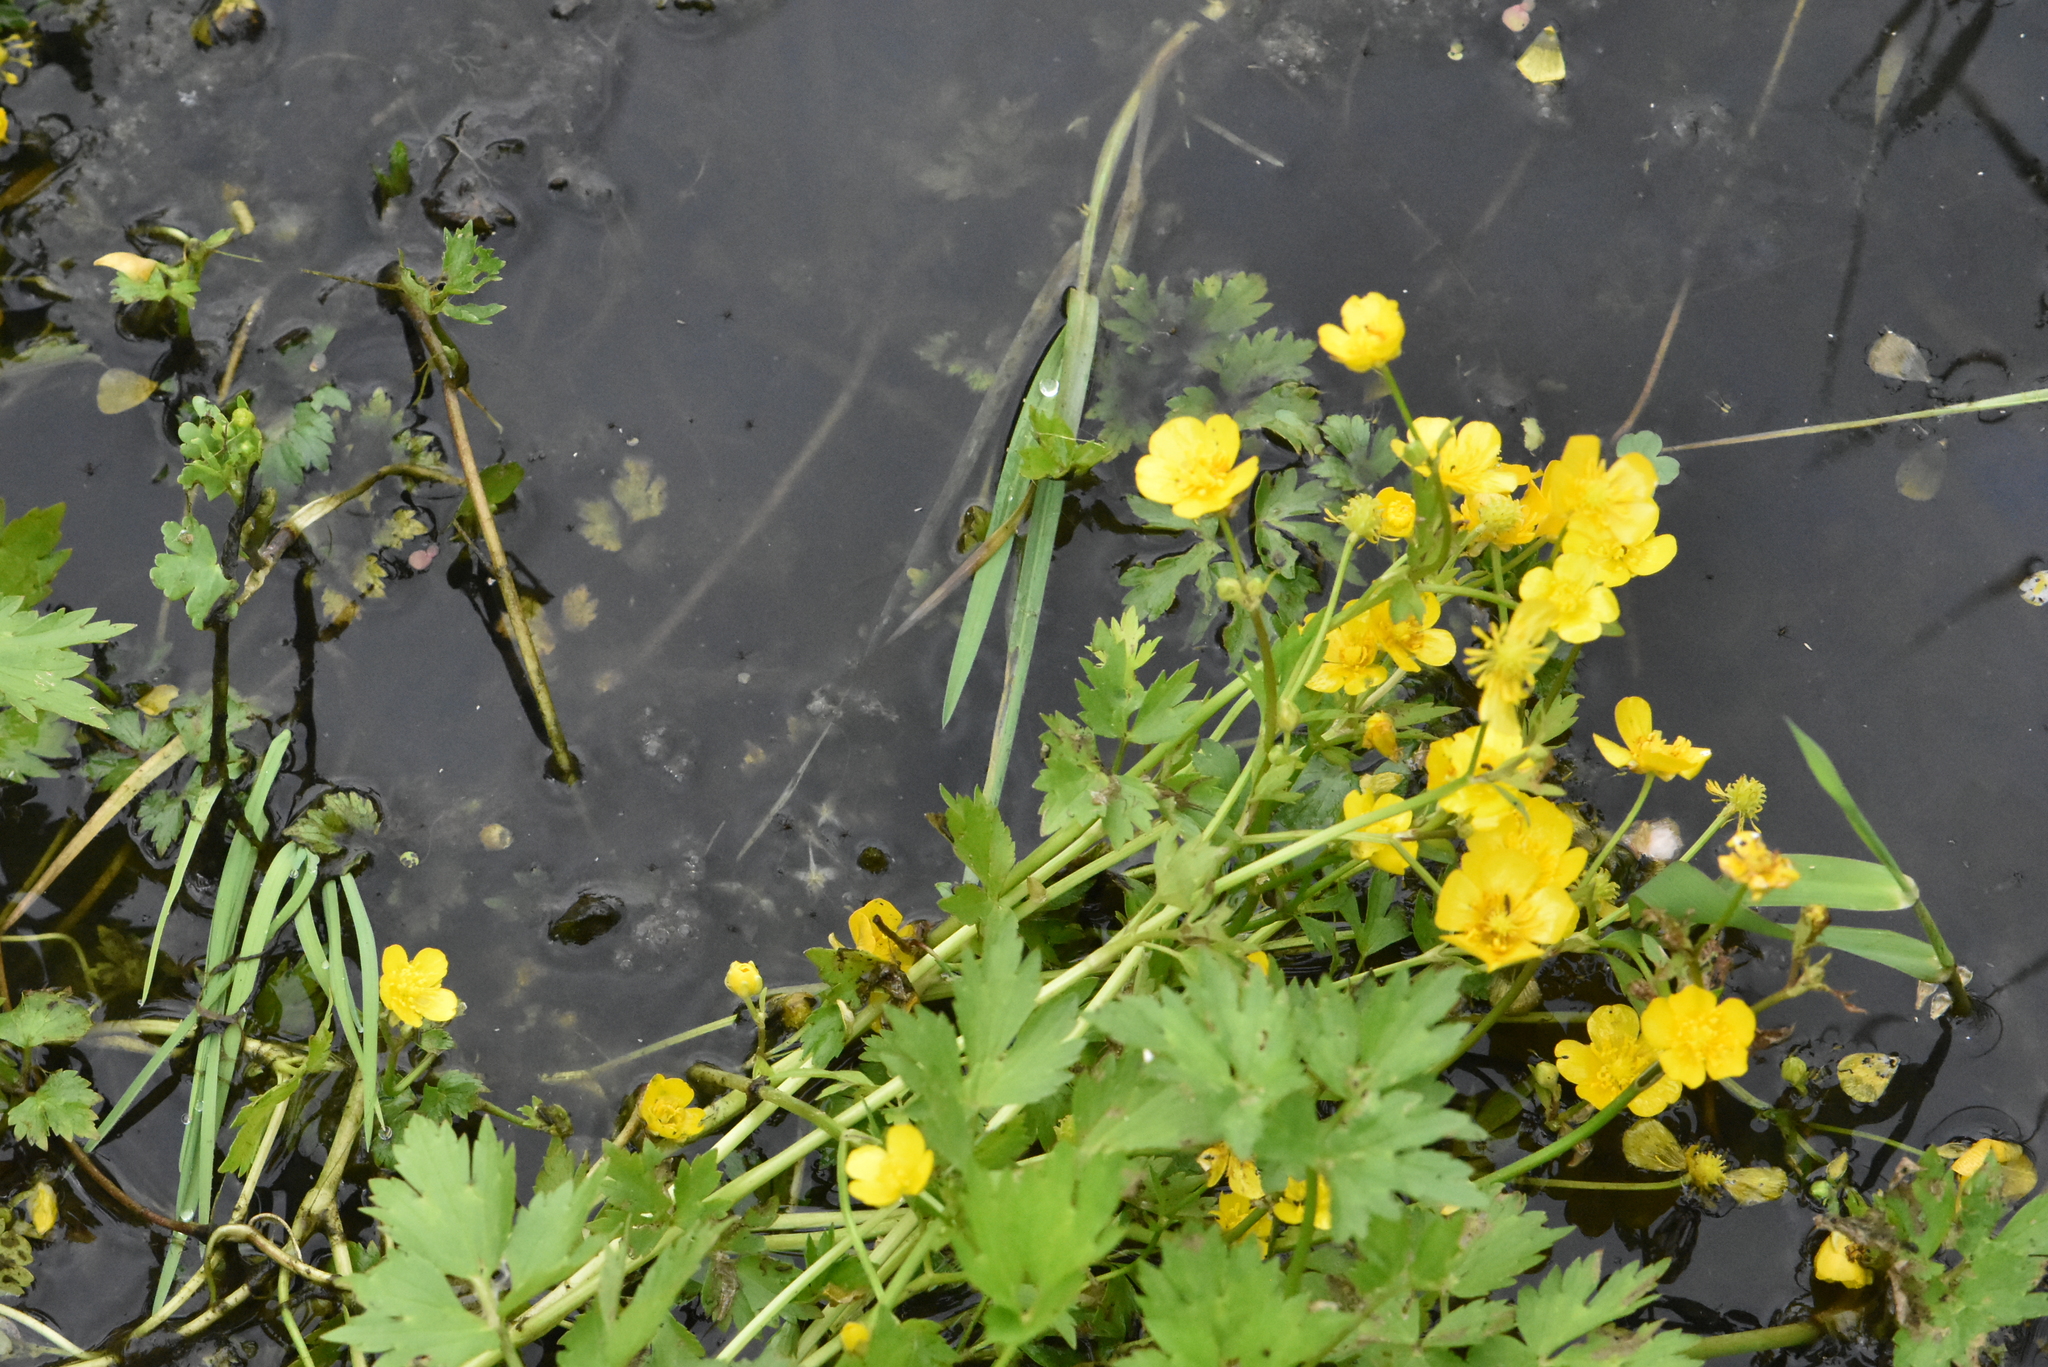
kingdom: Plantae
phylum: Tracheophyta
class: Magnoliopsida
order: Ranunculales
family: Ranunculaceae
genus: Ranunculus
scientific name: Ranunculus repens
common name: Creeping buttercup
